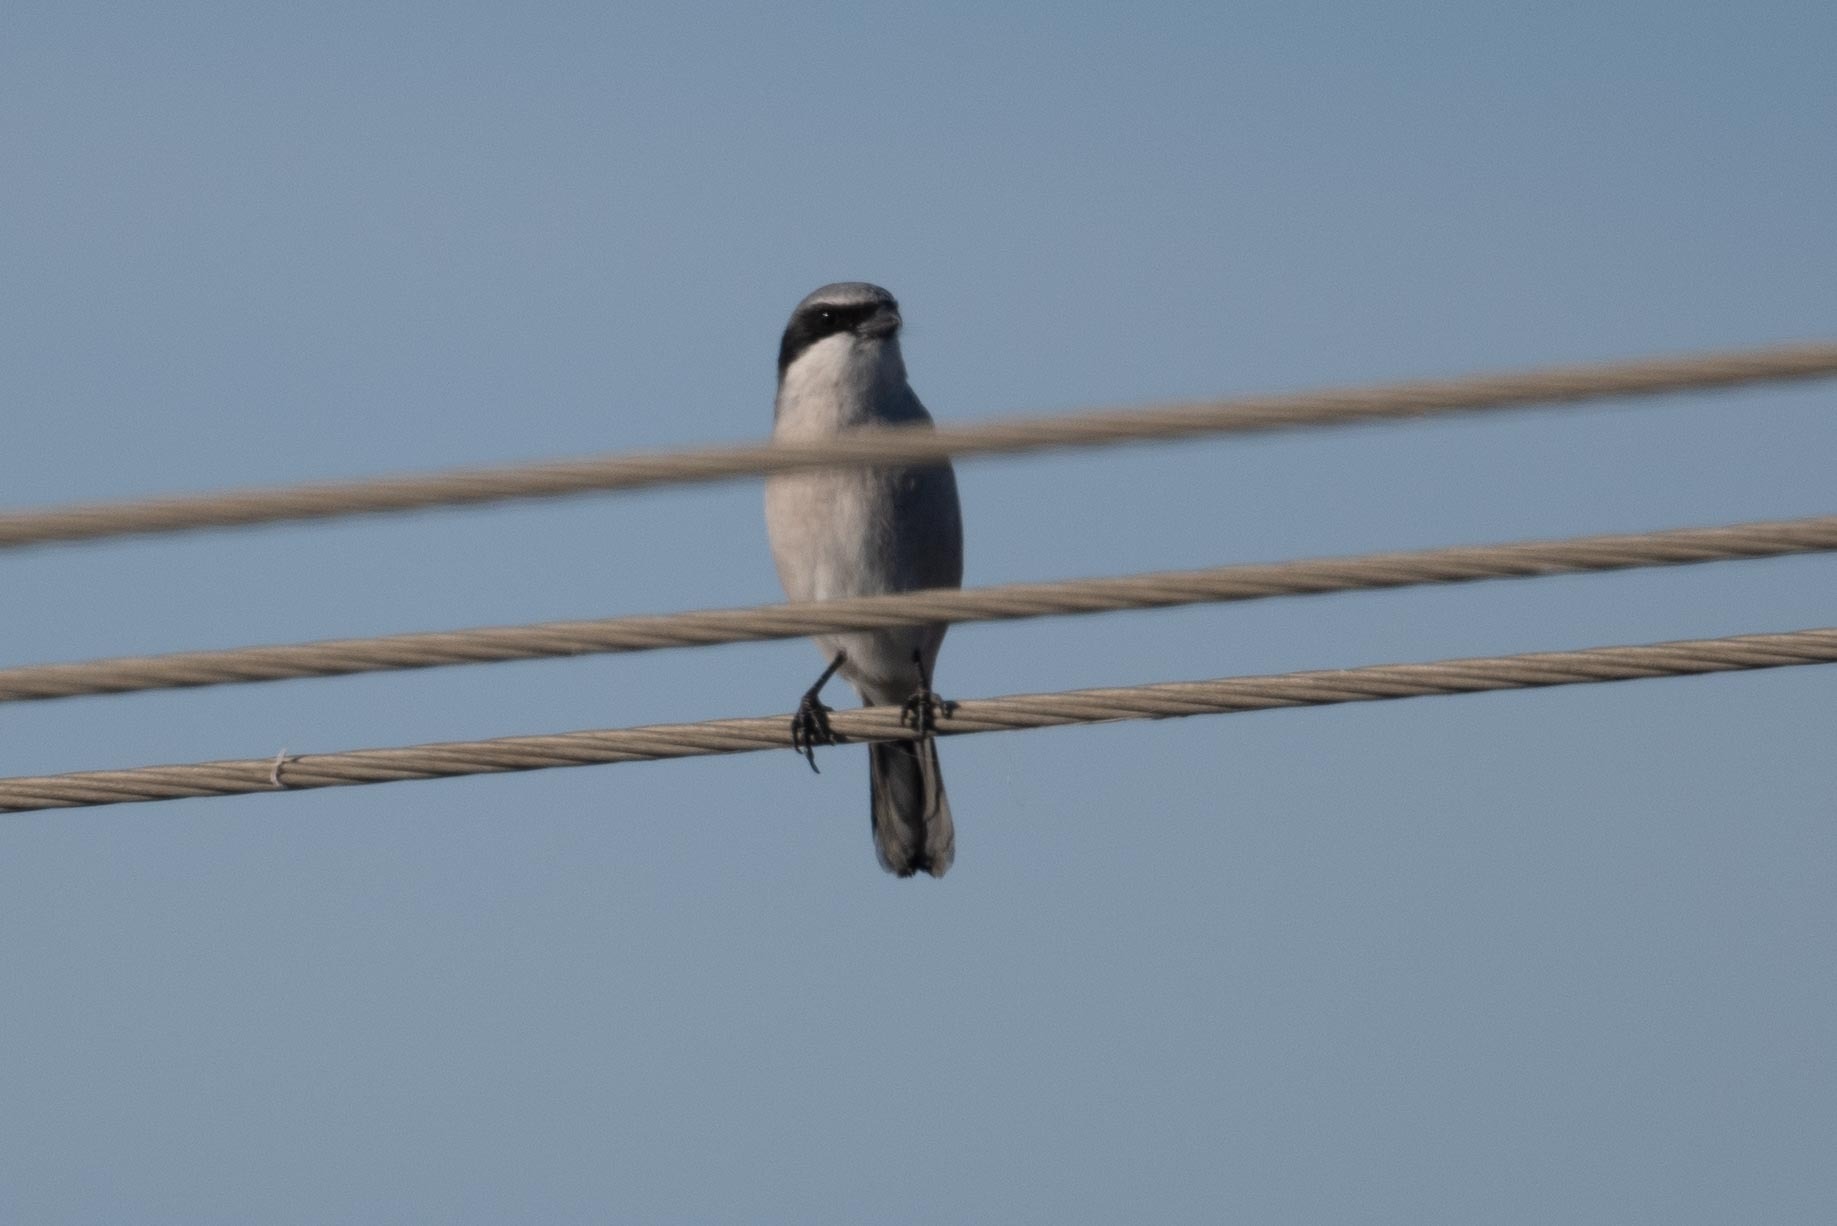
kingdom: Animalia
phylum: Chordata
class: Aves
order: Passeriformes
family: Laniidae
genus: Lanius
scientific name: Lanius ludovicianus
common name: Loggerhead shrike
